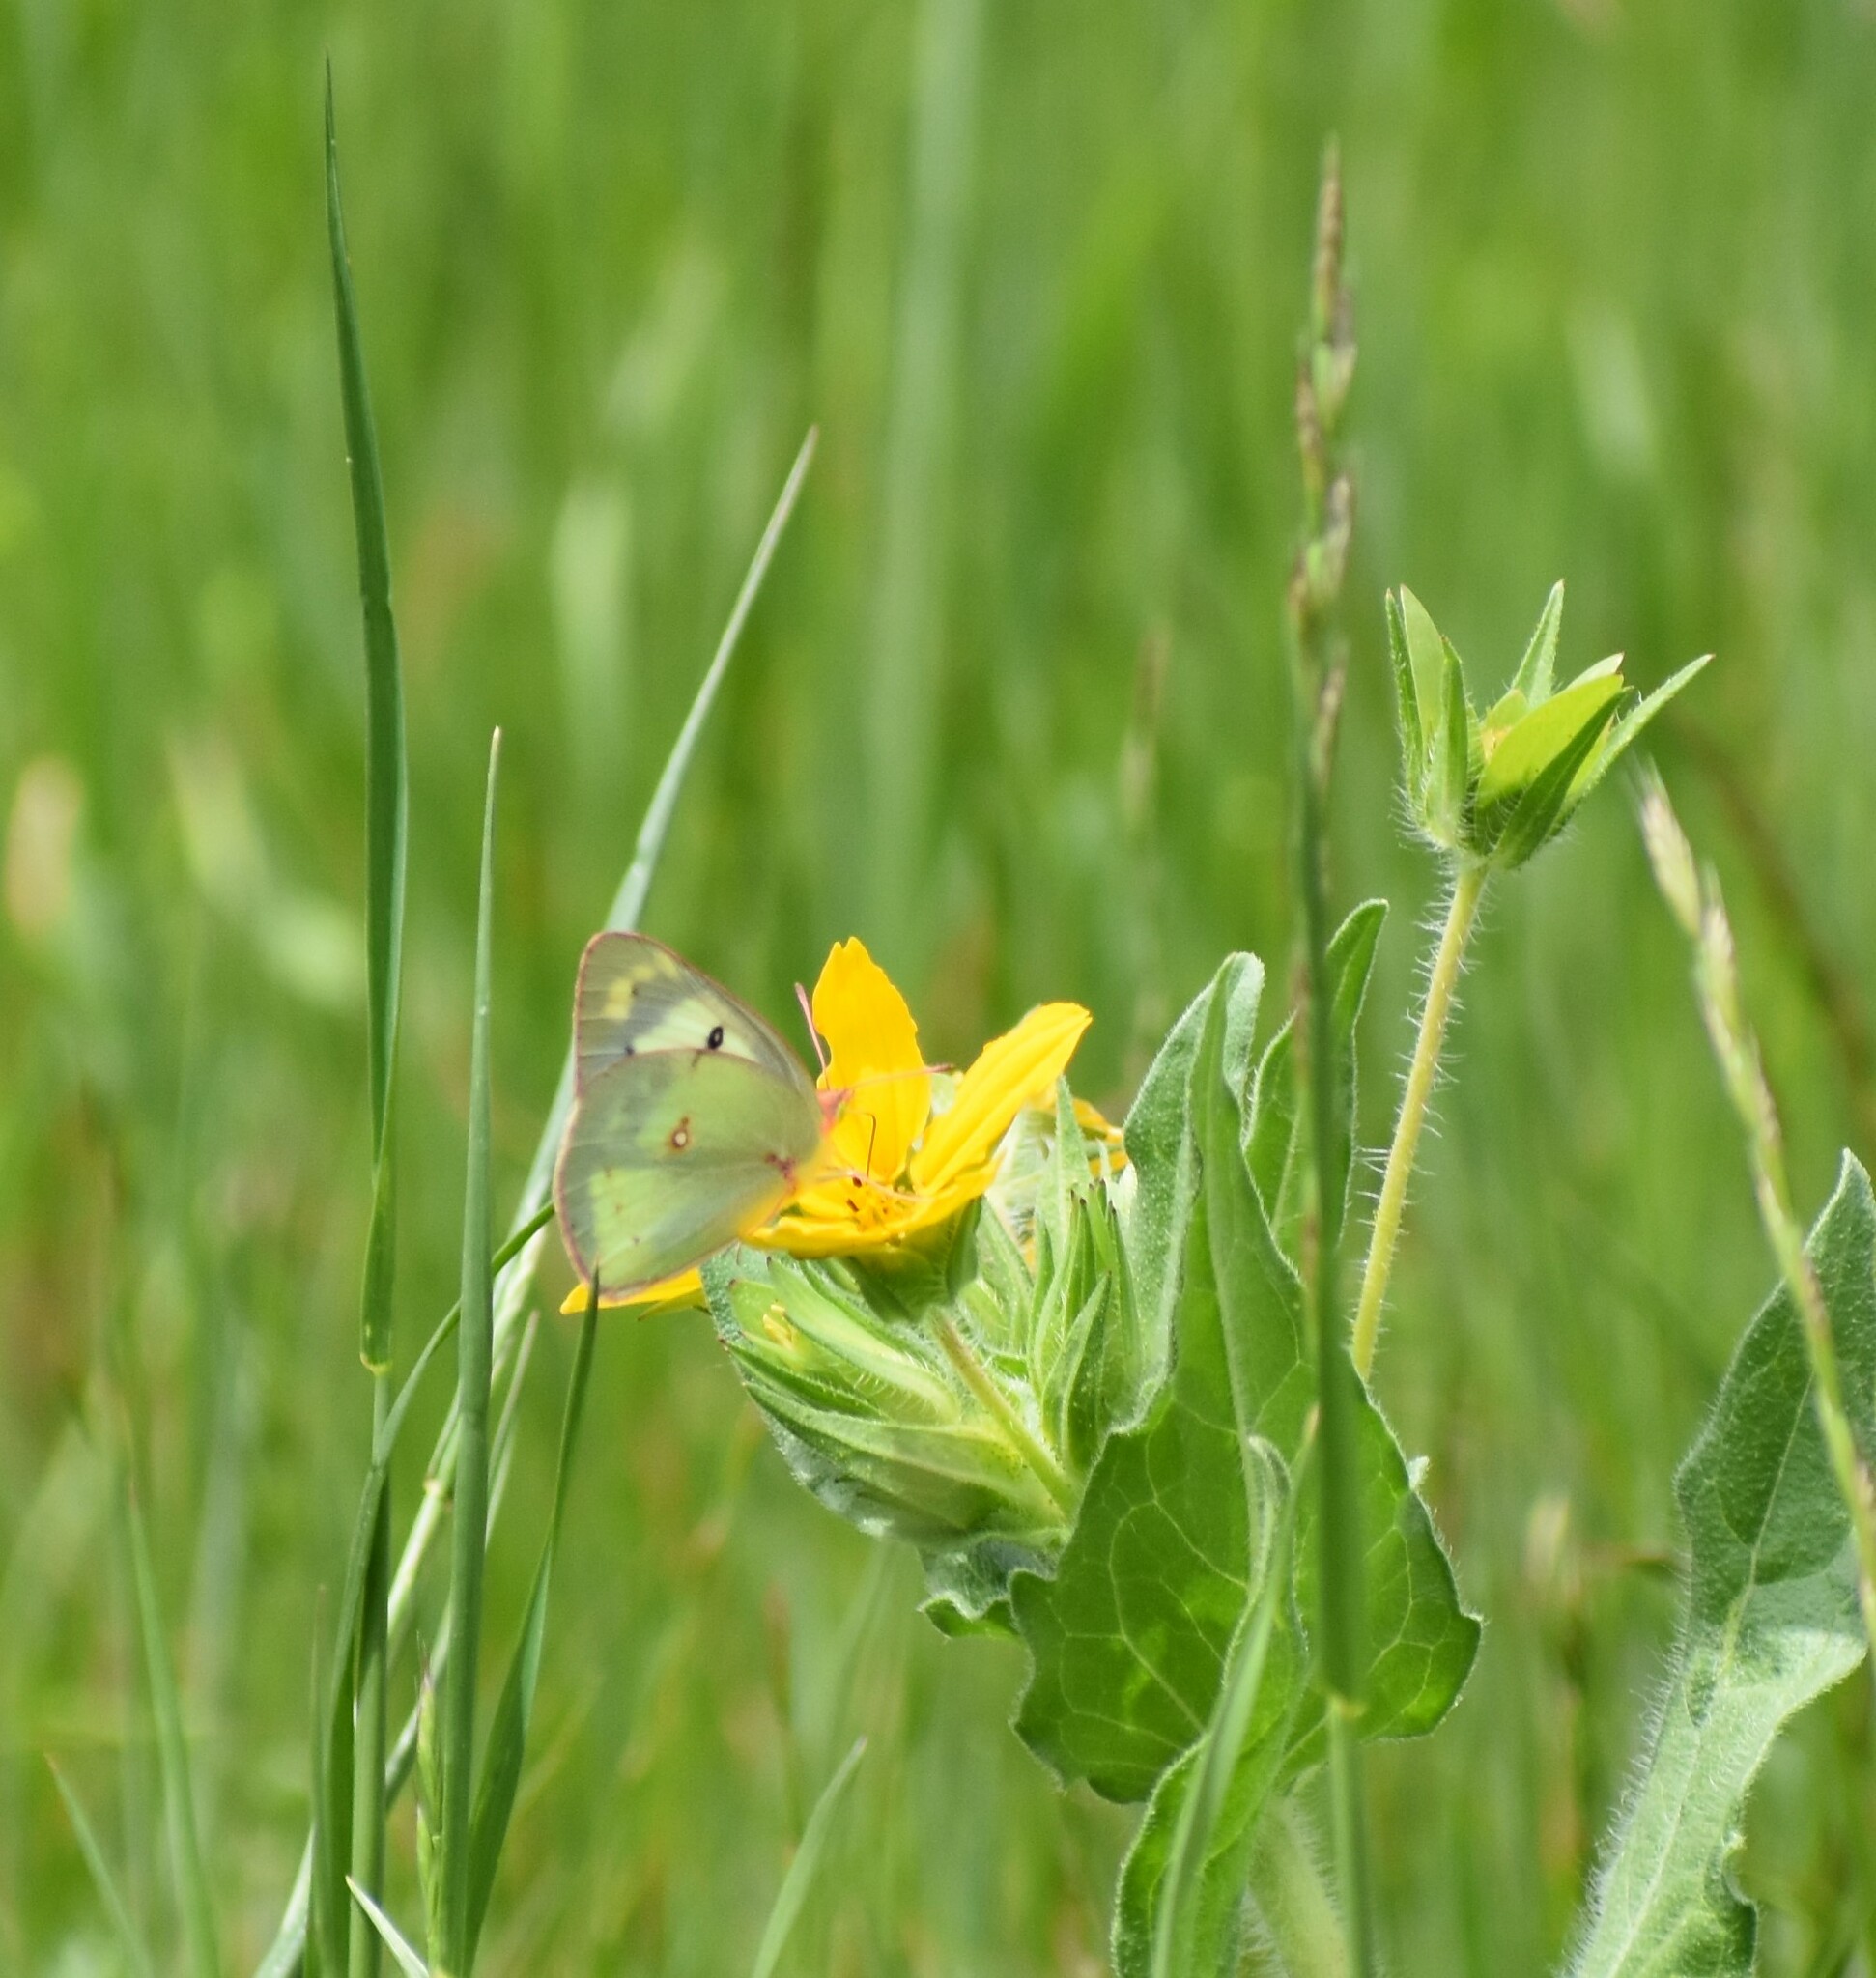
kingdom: Animalia
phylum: Arthropoda
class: Insecta
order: Lepidoptera
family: Pieridae
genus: Colias
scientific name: Colias eurytheme
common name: Alfalfa butterfly
